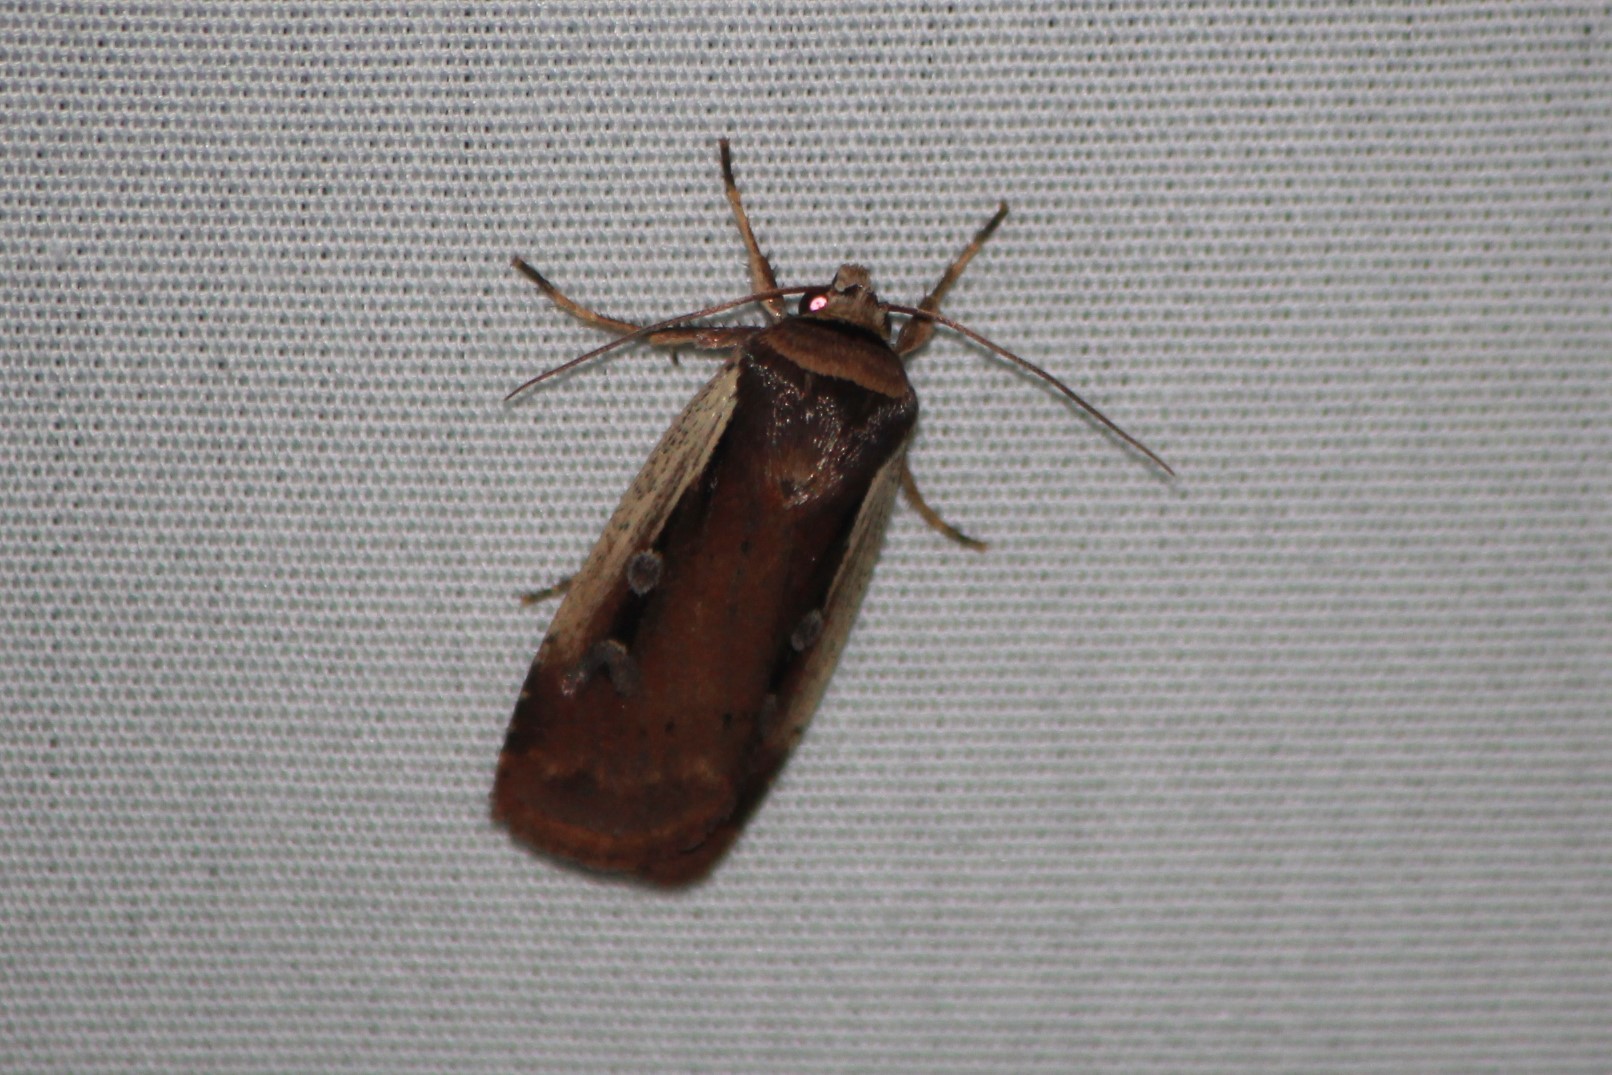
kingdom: Animalia
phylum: Arthropoda
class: Insecta
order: Lepidoptera
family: Noctuidae
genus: Ochropleura
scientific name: Ochropleura implecta
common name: Flame-shouldered dart
